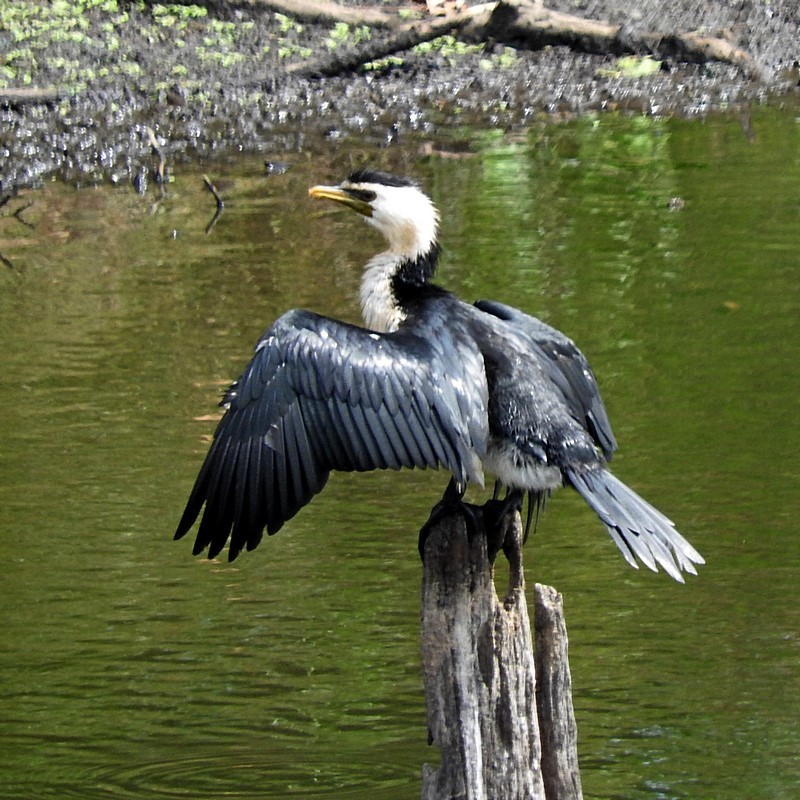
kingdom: Animalia
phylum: Chordata
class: Aves
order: Suliformes
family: Phalacrocoracidae
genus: Microcarbo
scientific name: Microcarbo melanoleucos
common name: Little pied cormorant
